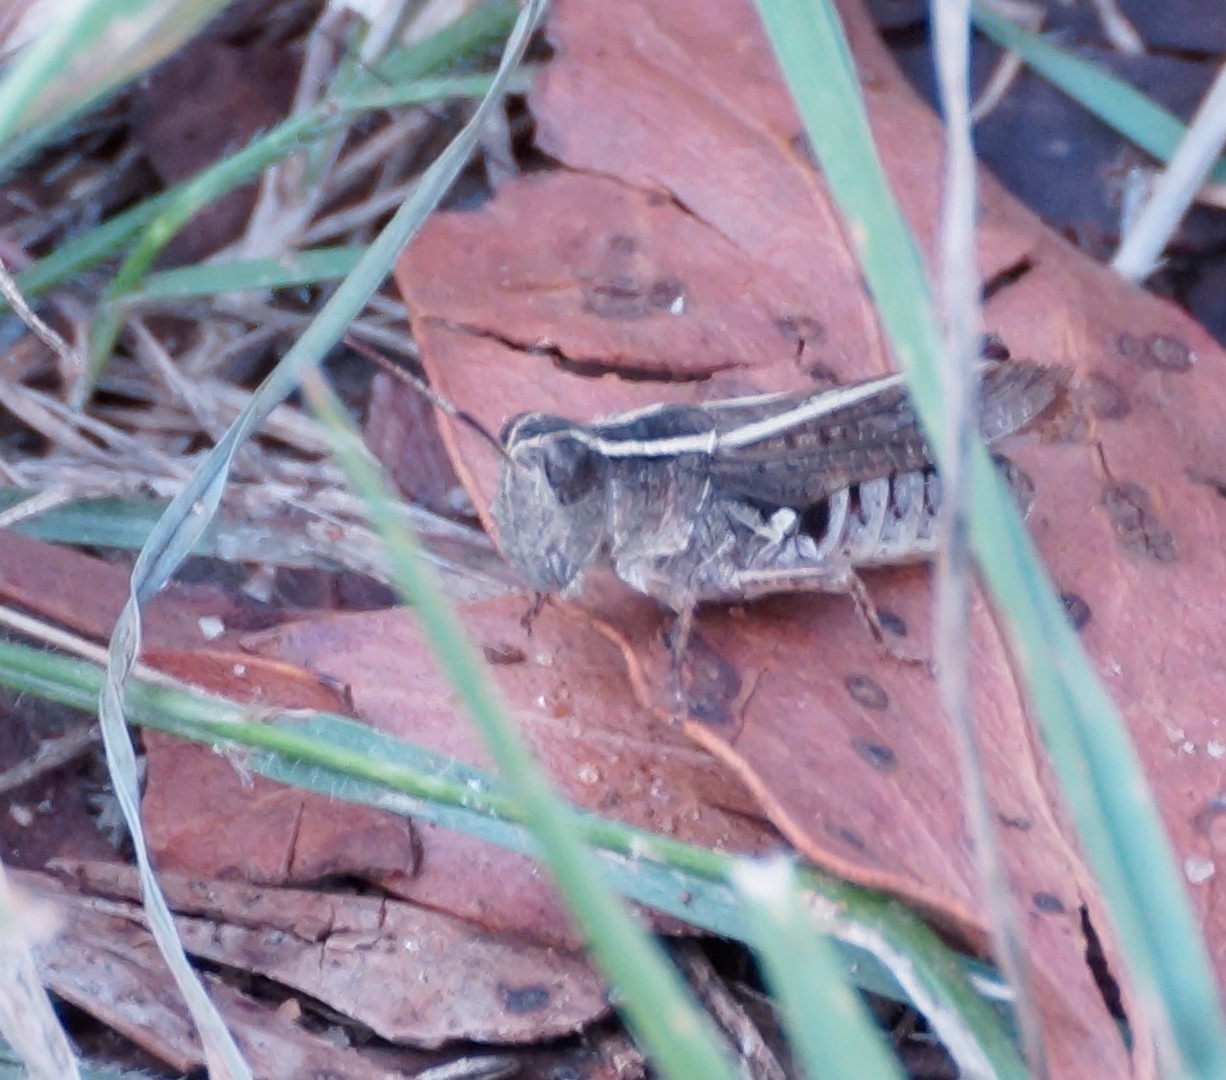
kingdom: Animalia
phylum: Arthropoda
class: Insecta
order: Orthoptera
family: Acrididae
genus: Phaulacridium
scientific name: Phaulacridium vittatum
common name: Wingless grasshopper
